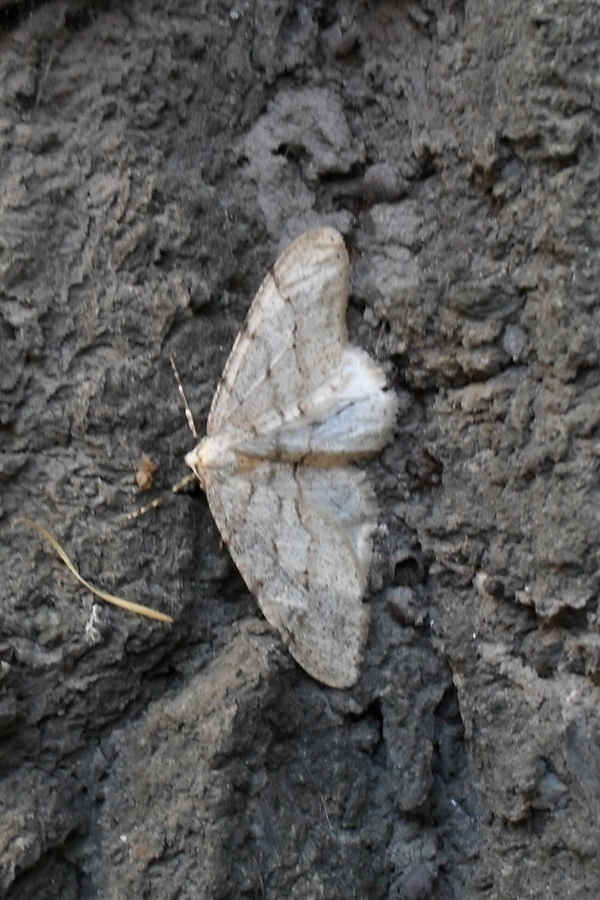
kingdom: Animalia
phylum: Arthropoda
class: Insecta
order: Lepidoptera
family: Geometridae
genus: Larerannis
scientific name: Larerannis orthogrammaria
